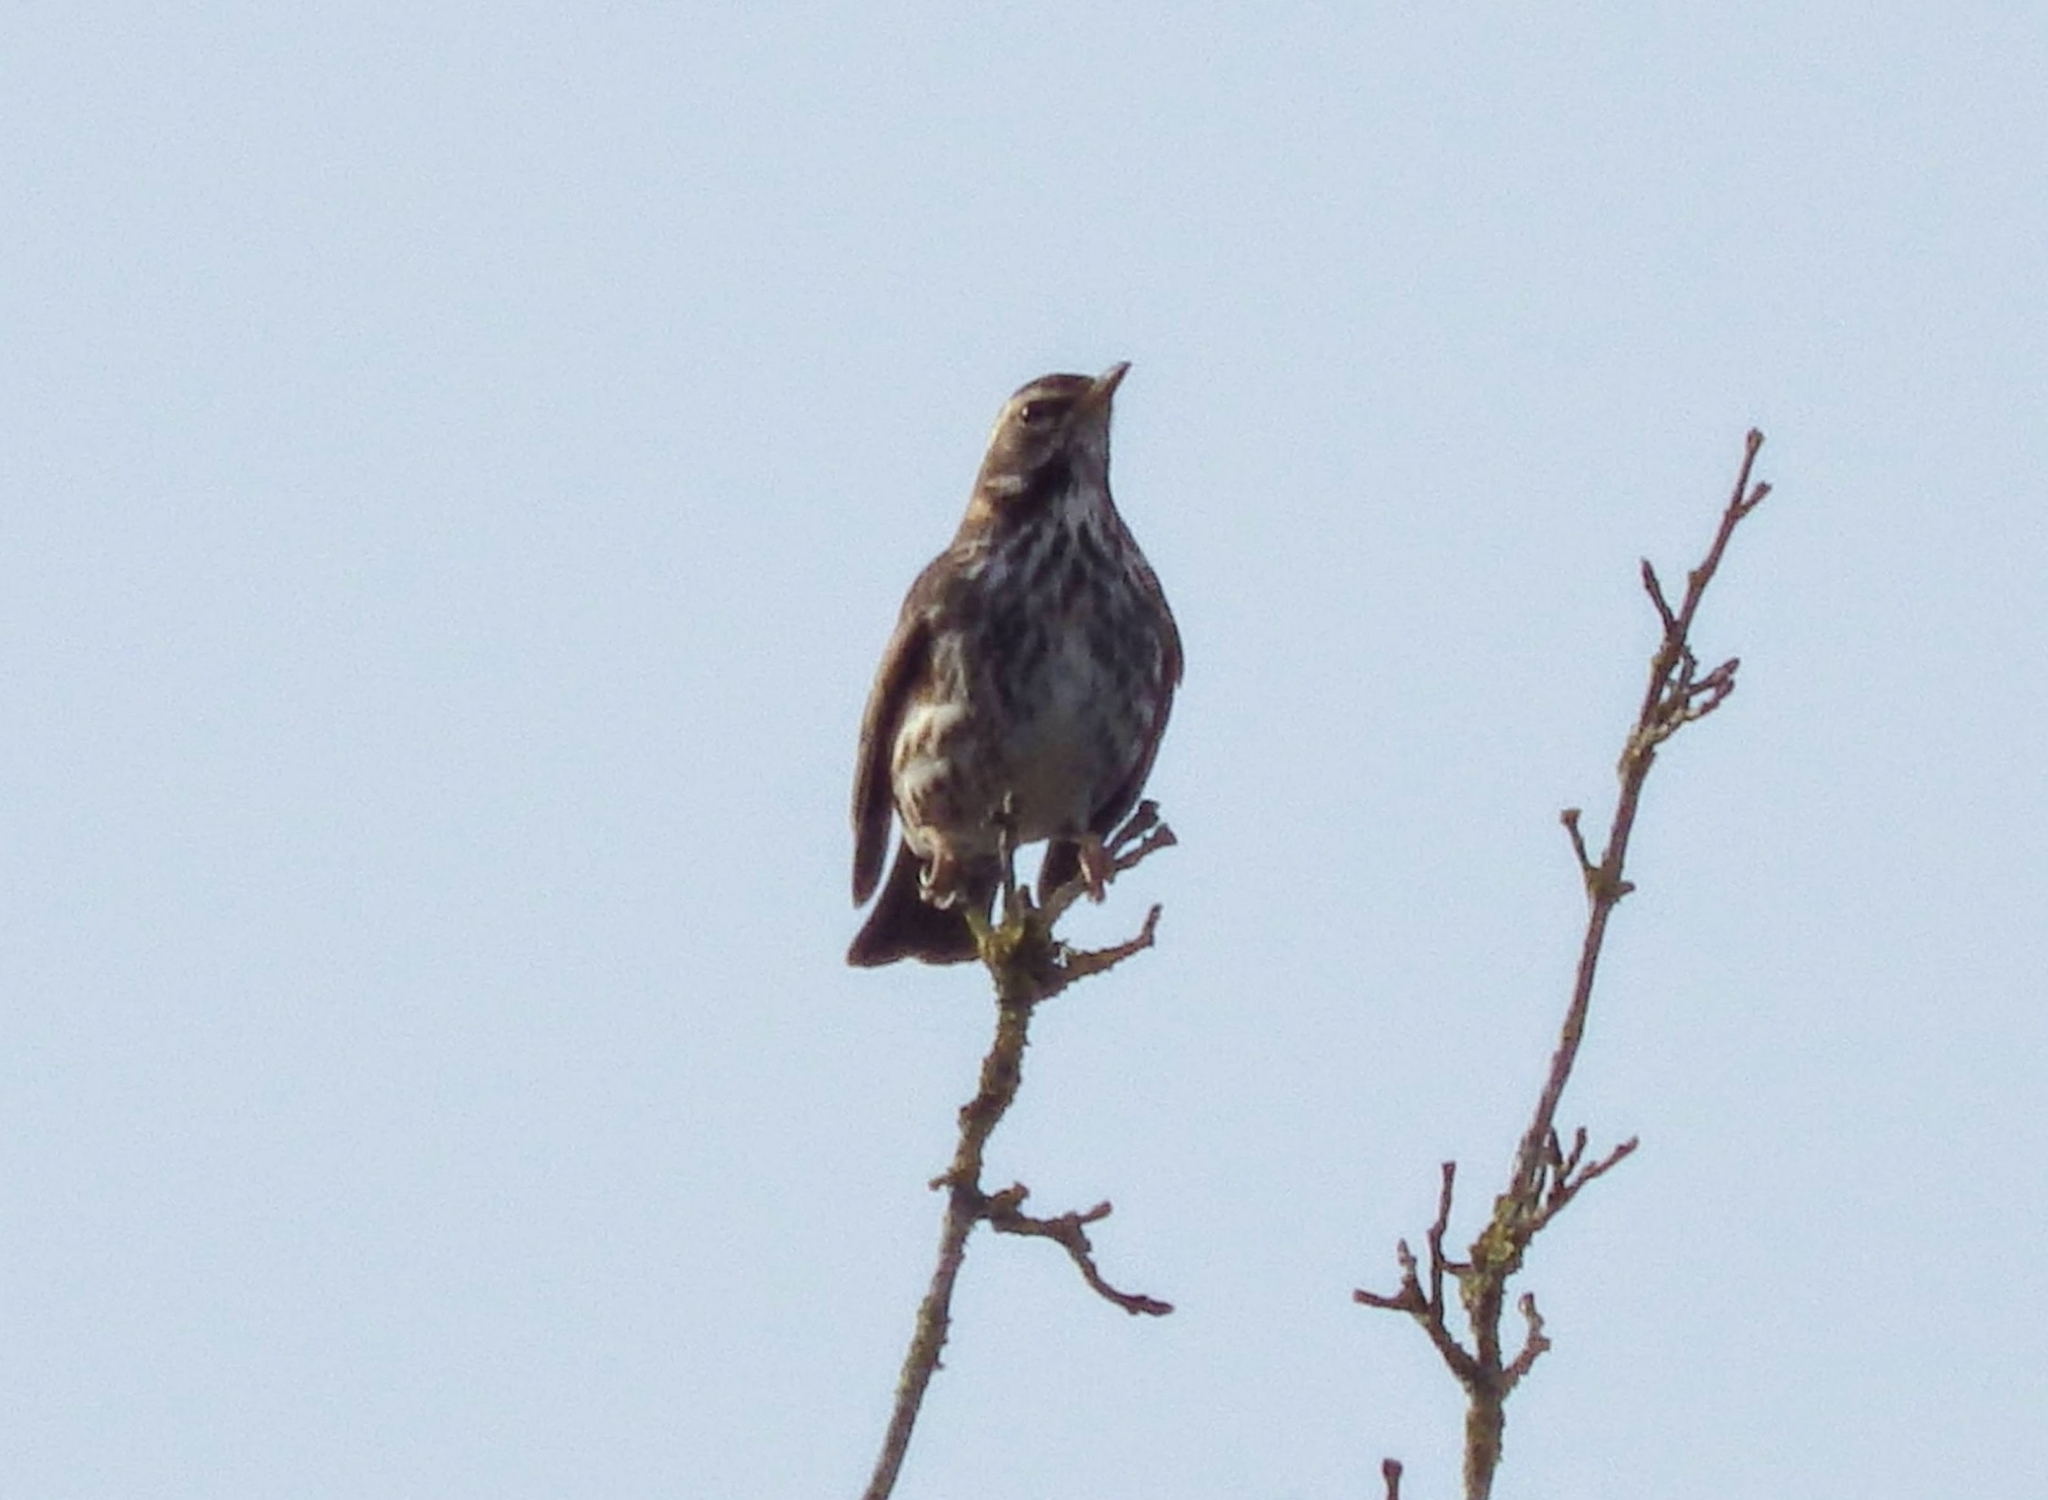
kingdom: Animalia
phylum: Chordata
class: Aves
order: Passeriformes
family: Turdidae
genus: Turdus
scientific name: Turdus iliacus
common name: Redwing
